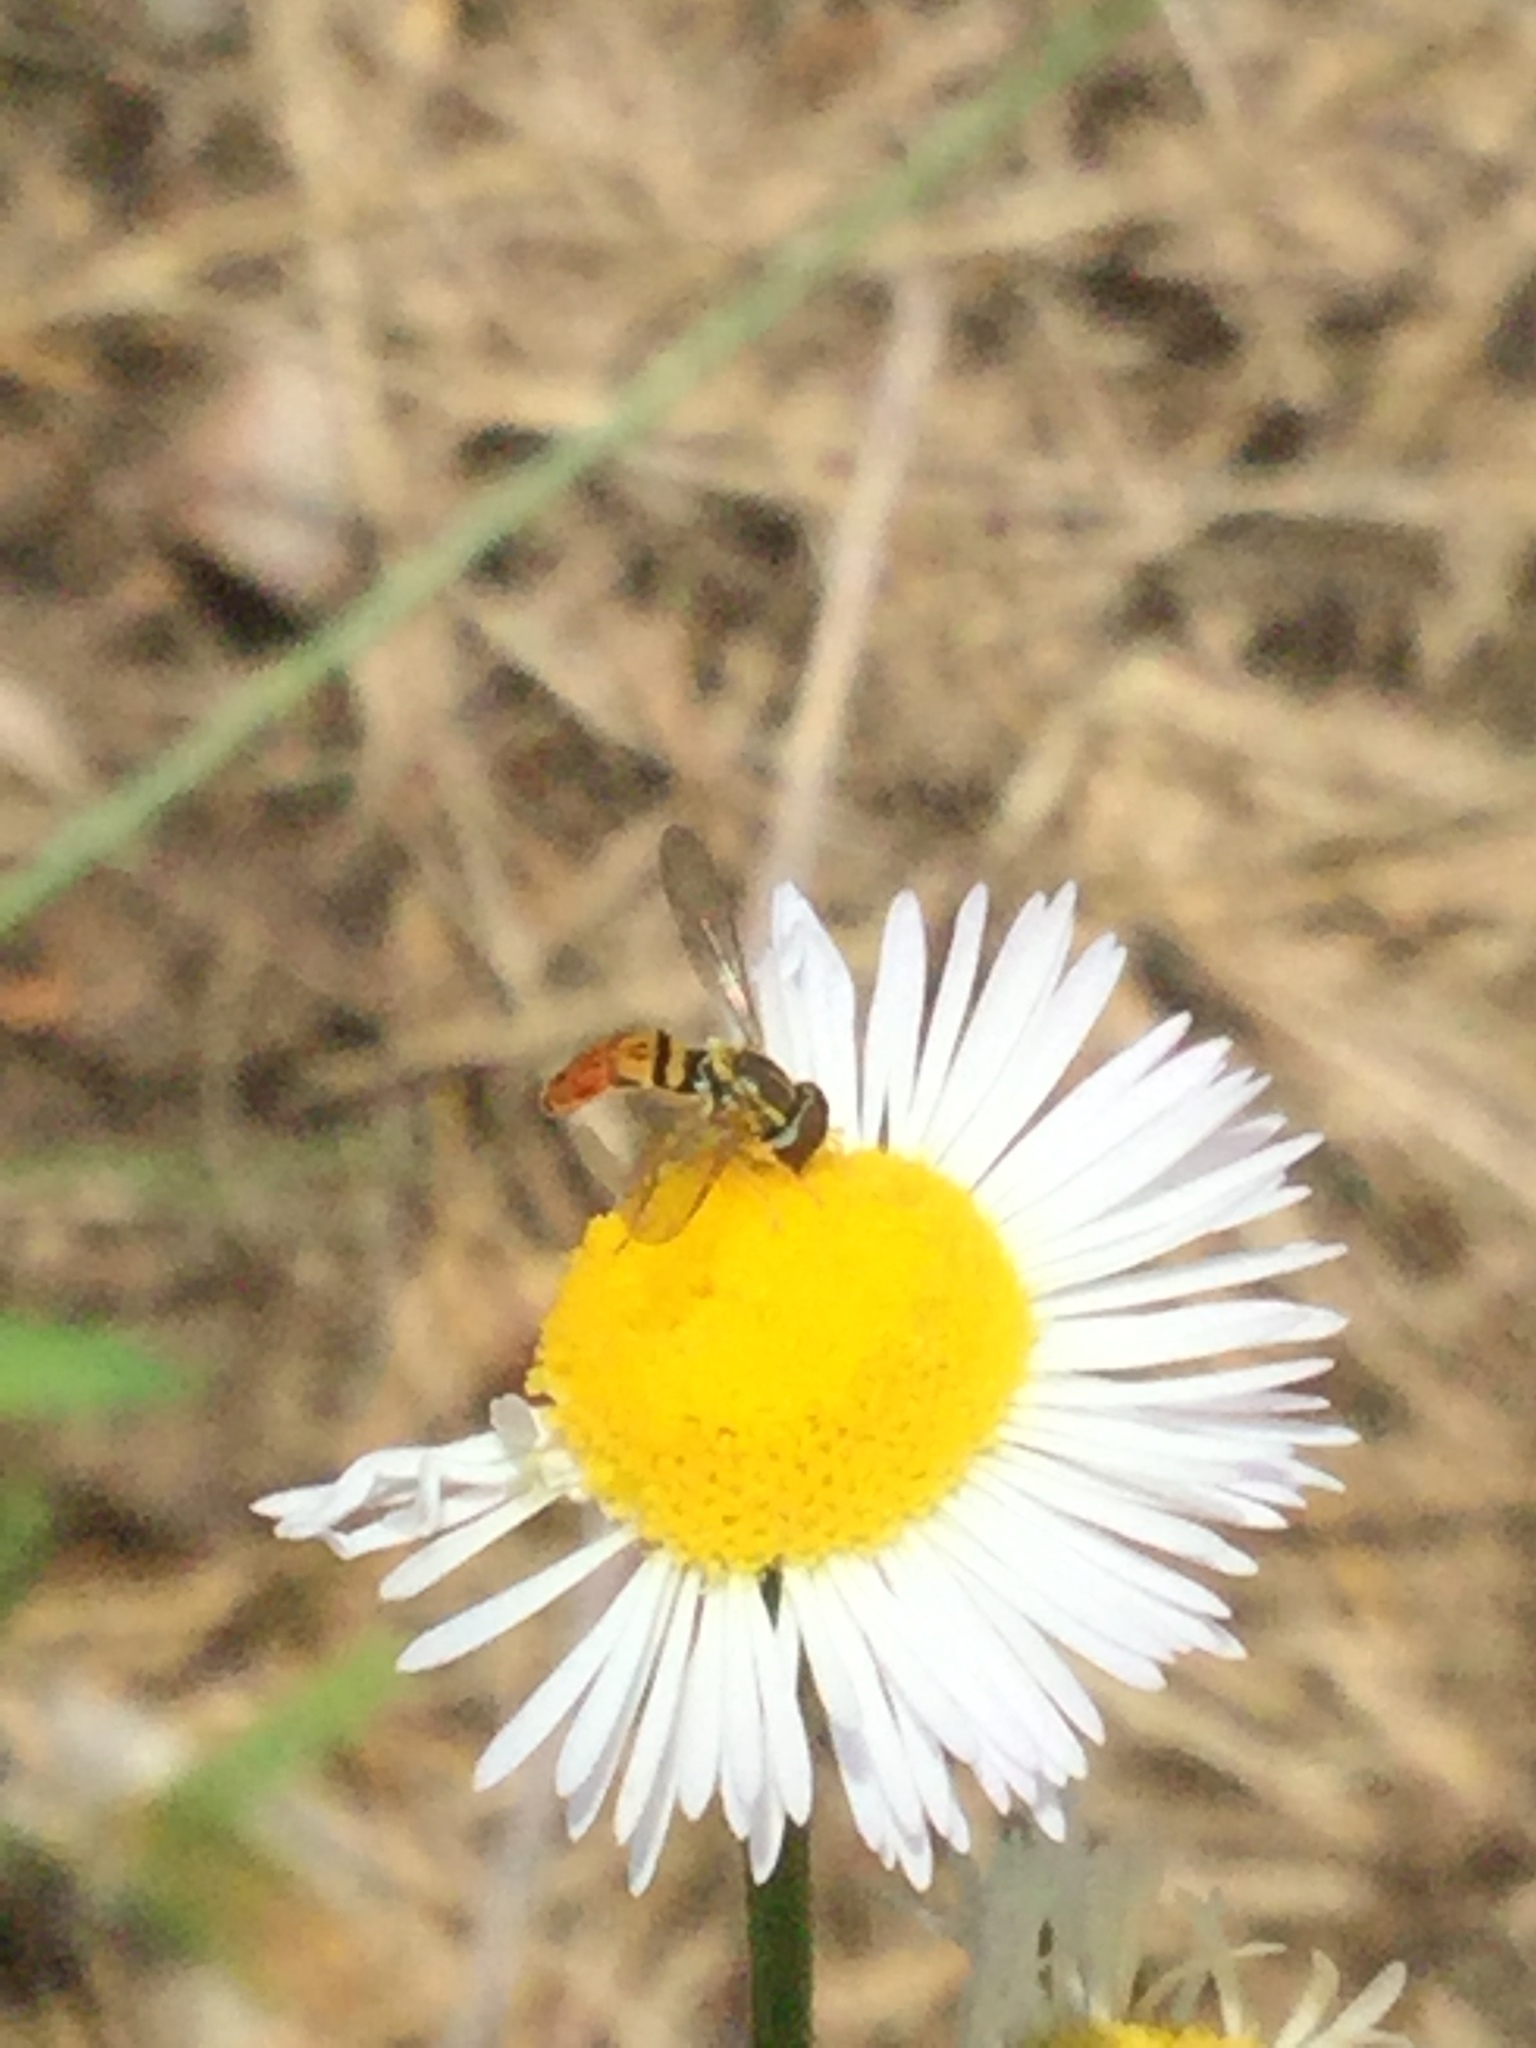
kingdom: Animalia
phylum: Arthropoda
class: Insecta
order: Diptera
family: Syrphidae
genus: Toxomerus
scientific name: Toxomerus marginatus
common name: Syrphid fly
